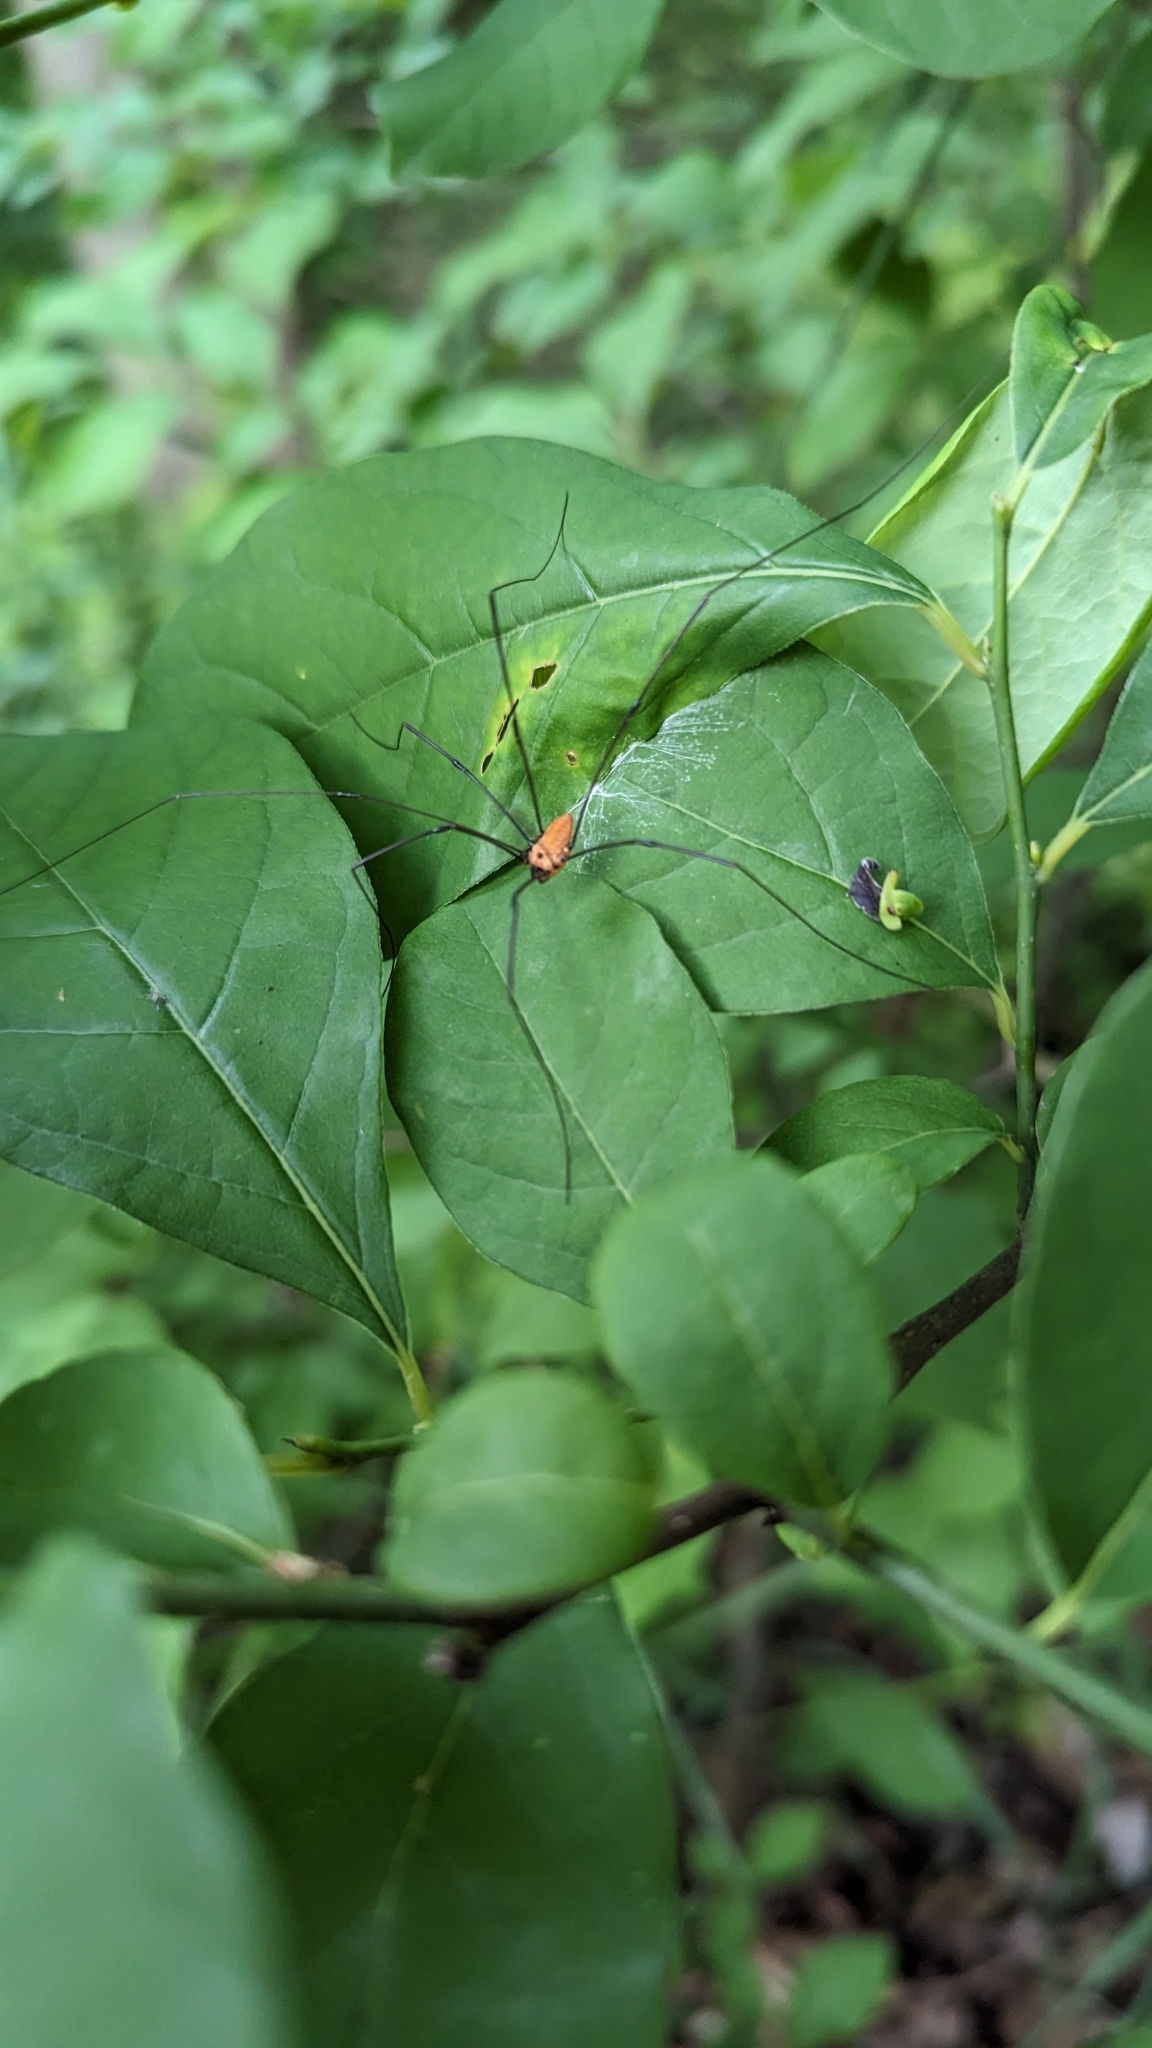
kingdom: Animalia
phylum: Arthropoda
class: Arachnida
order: Opiliones
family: Sclerosomatidae
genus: Leiobunum
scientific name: Leiobunum nigropalpi
